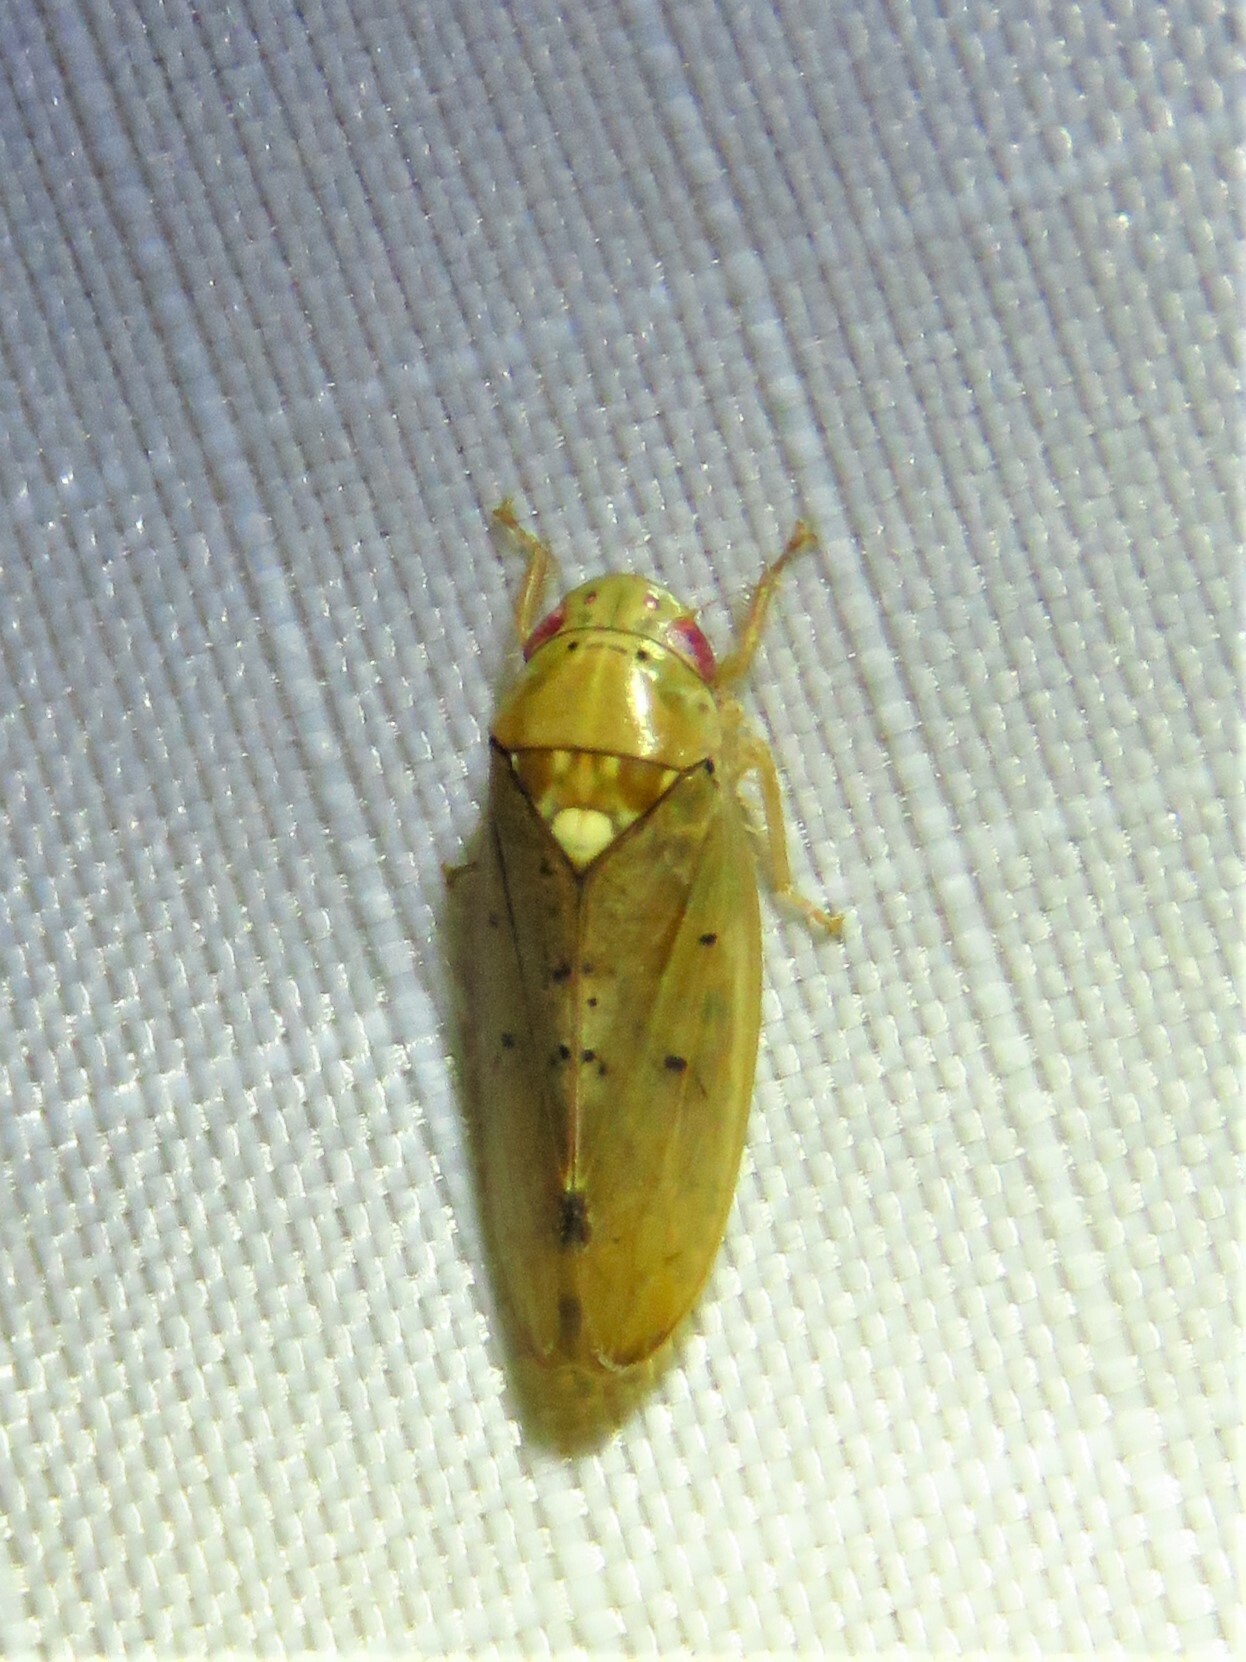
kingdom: Animalia
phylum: Arthropoda
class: Insecta
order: Hemiptera
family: Cicadellidae
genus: Ponana
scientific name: Ponana quadralaba
